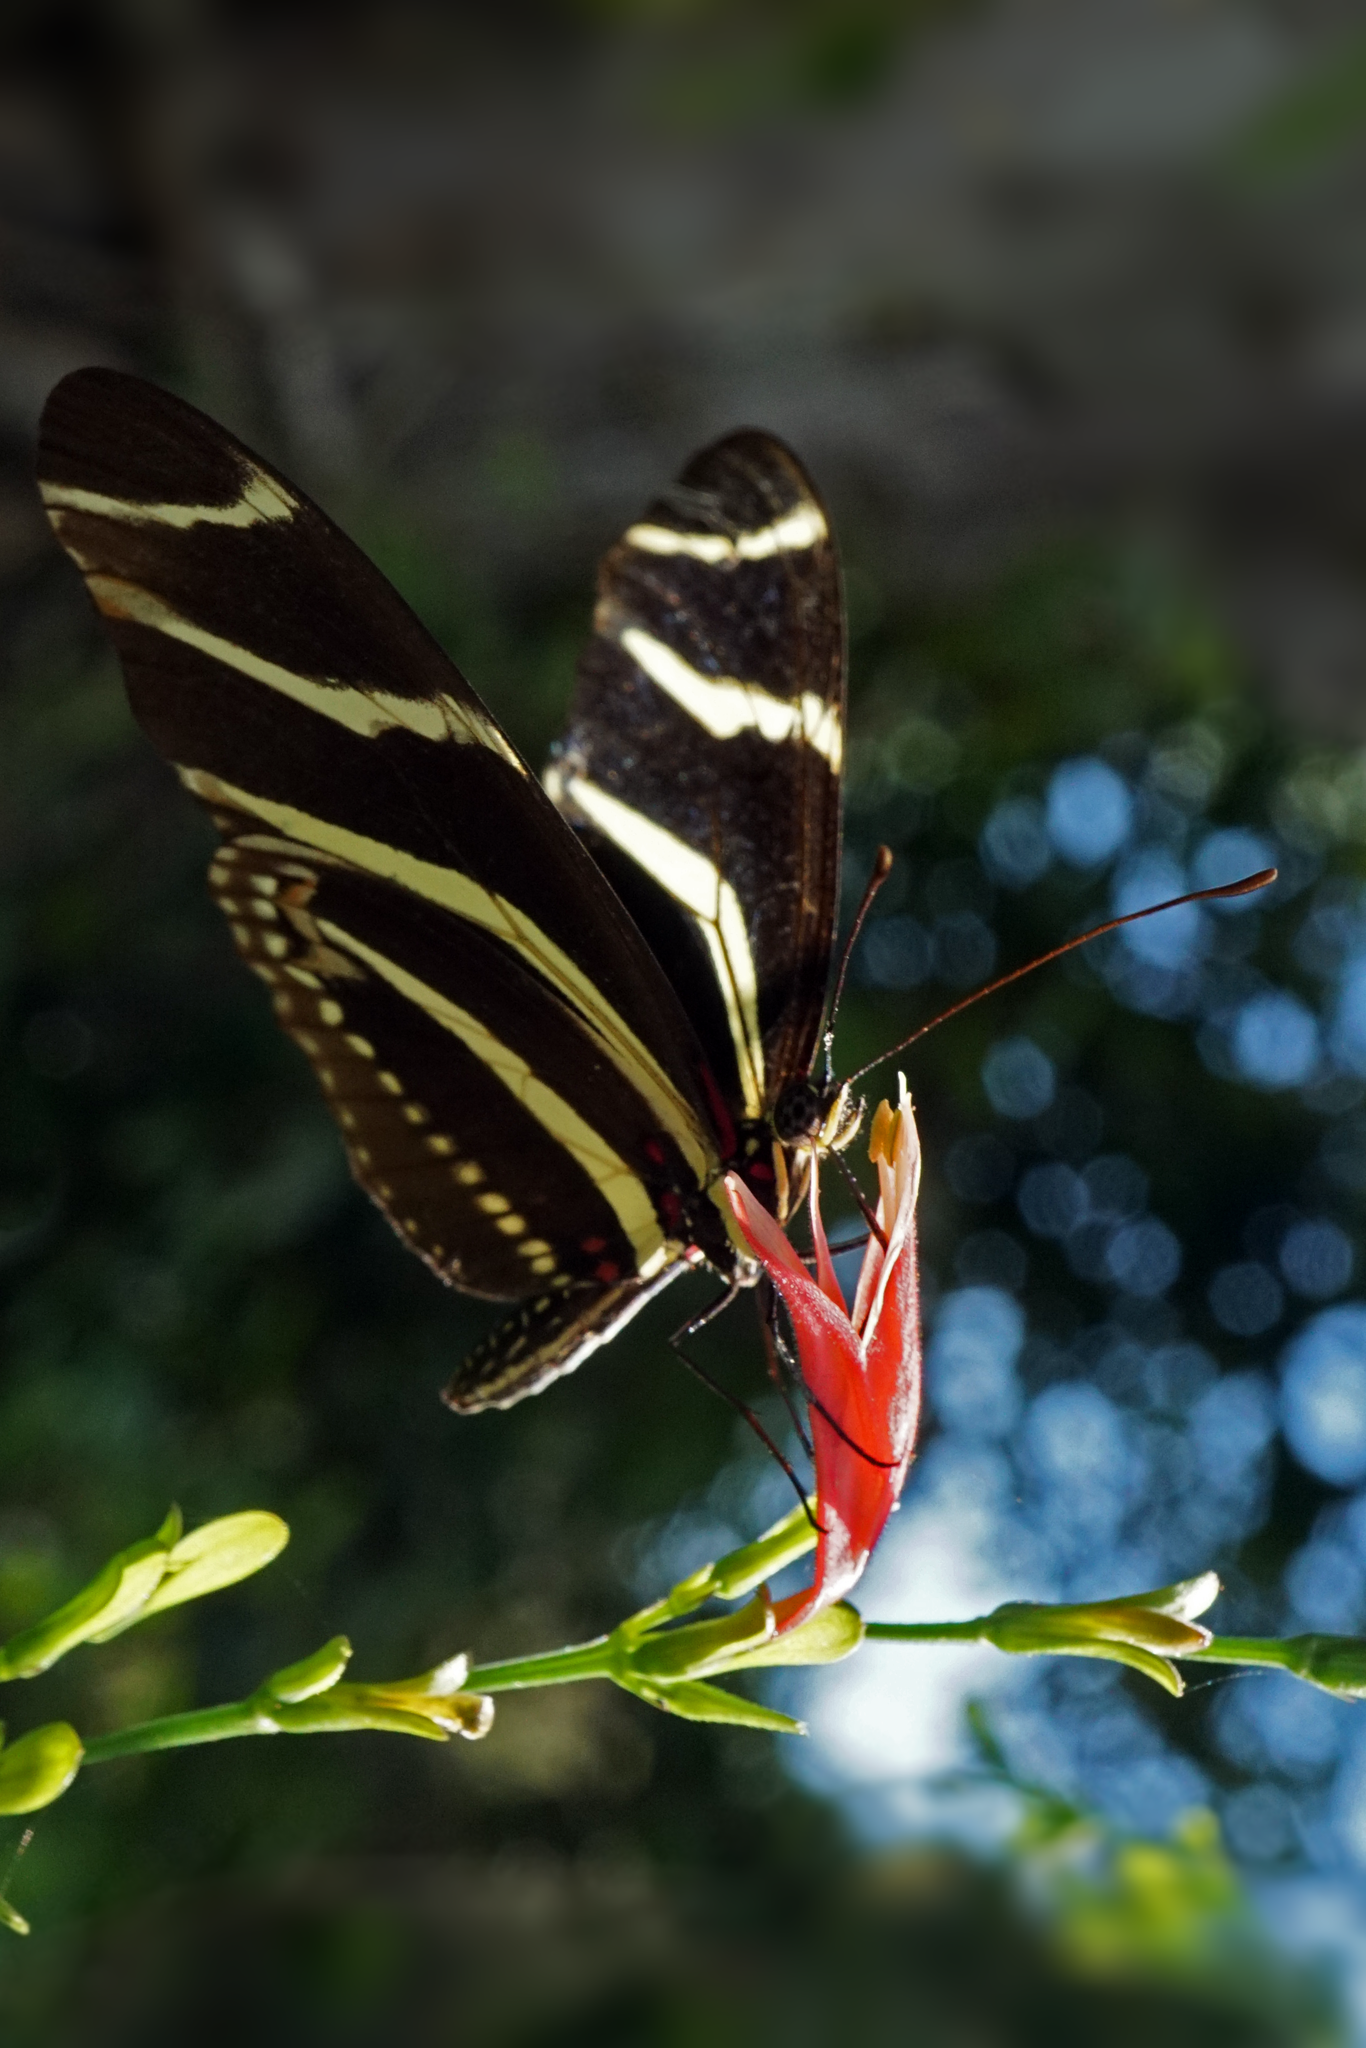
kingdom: Animalia
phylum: Arthropoda
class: Insecta
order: Lepidoptera
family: Nymphalidae
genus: Heliconius
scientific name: Heliconius charithonia
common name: Zebra long wing
